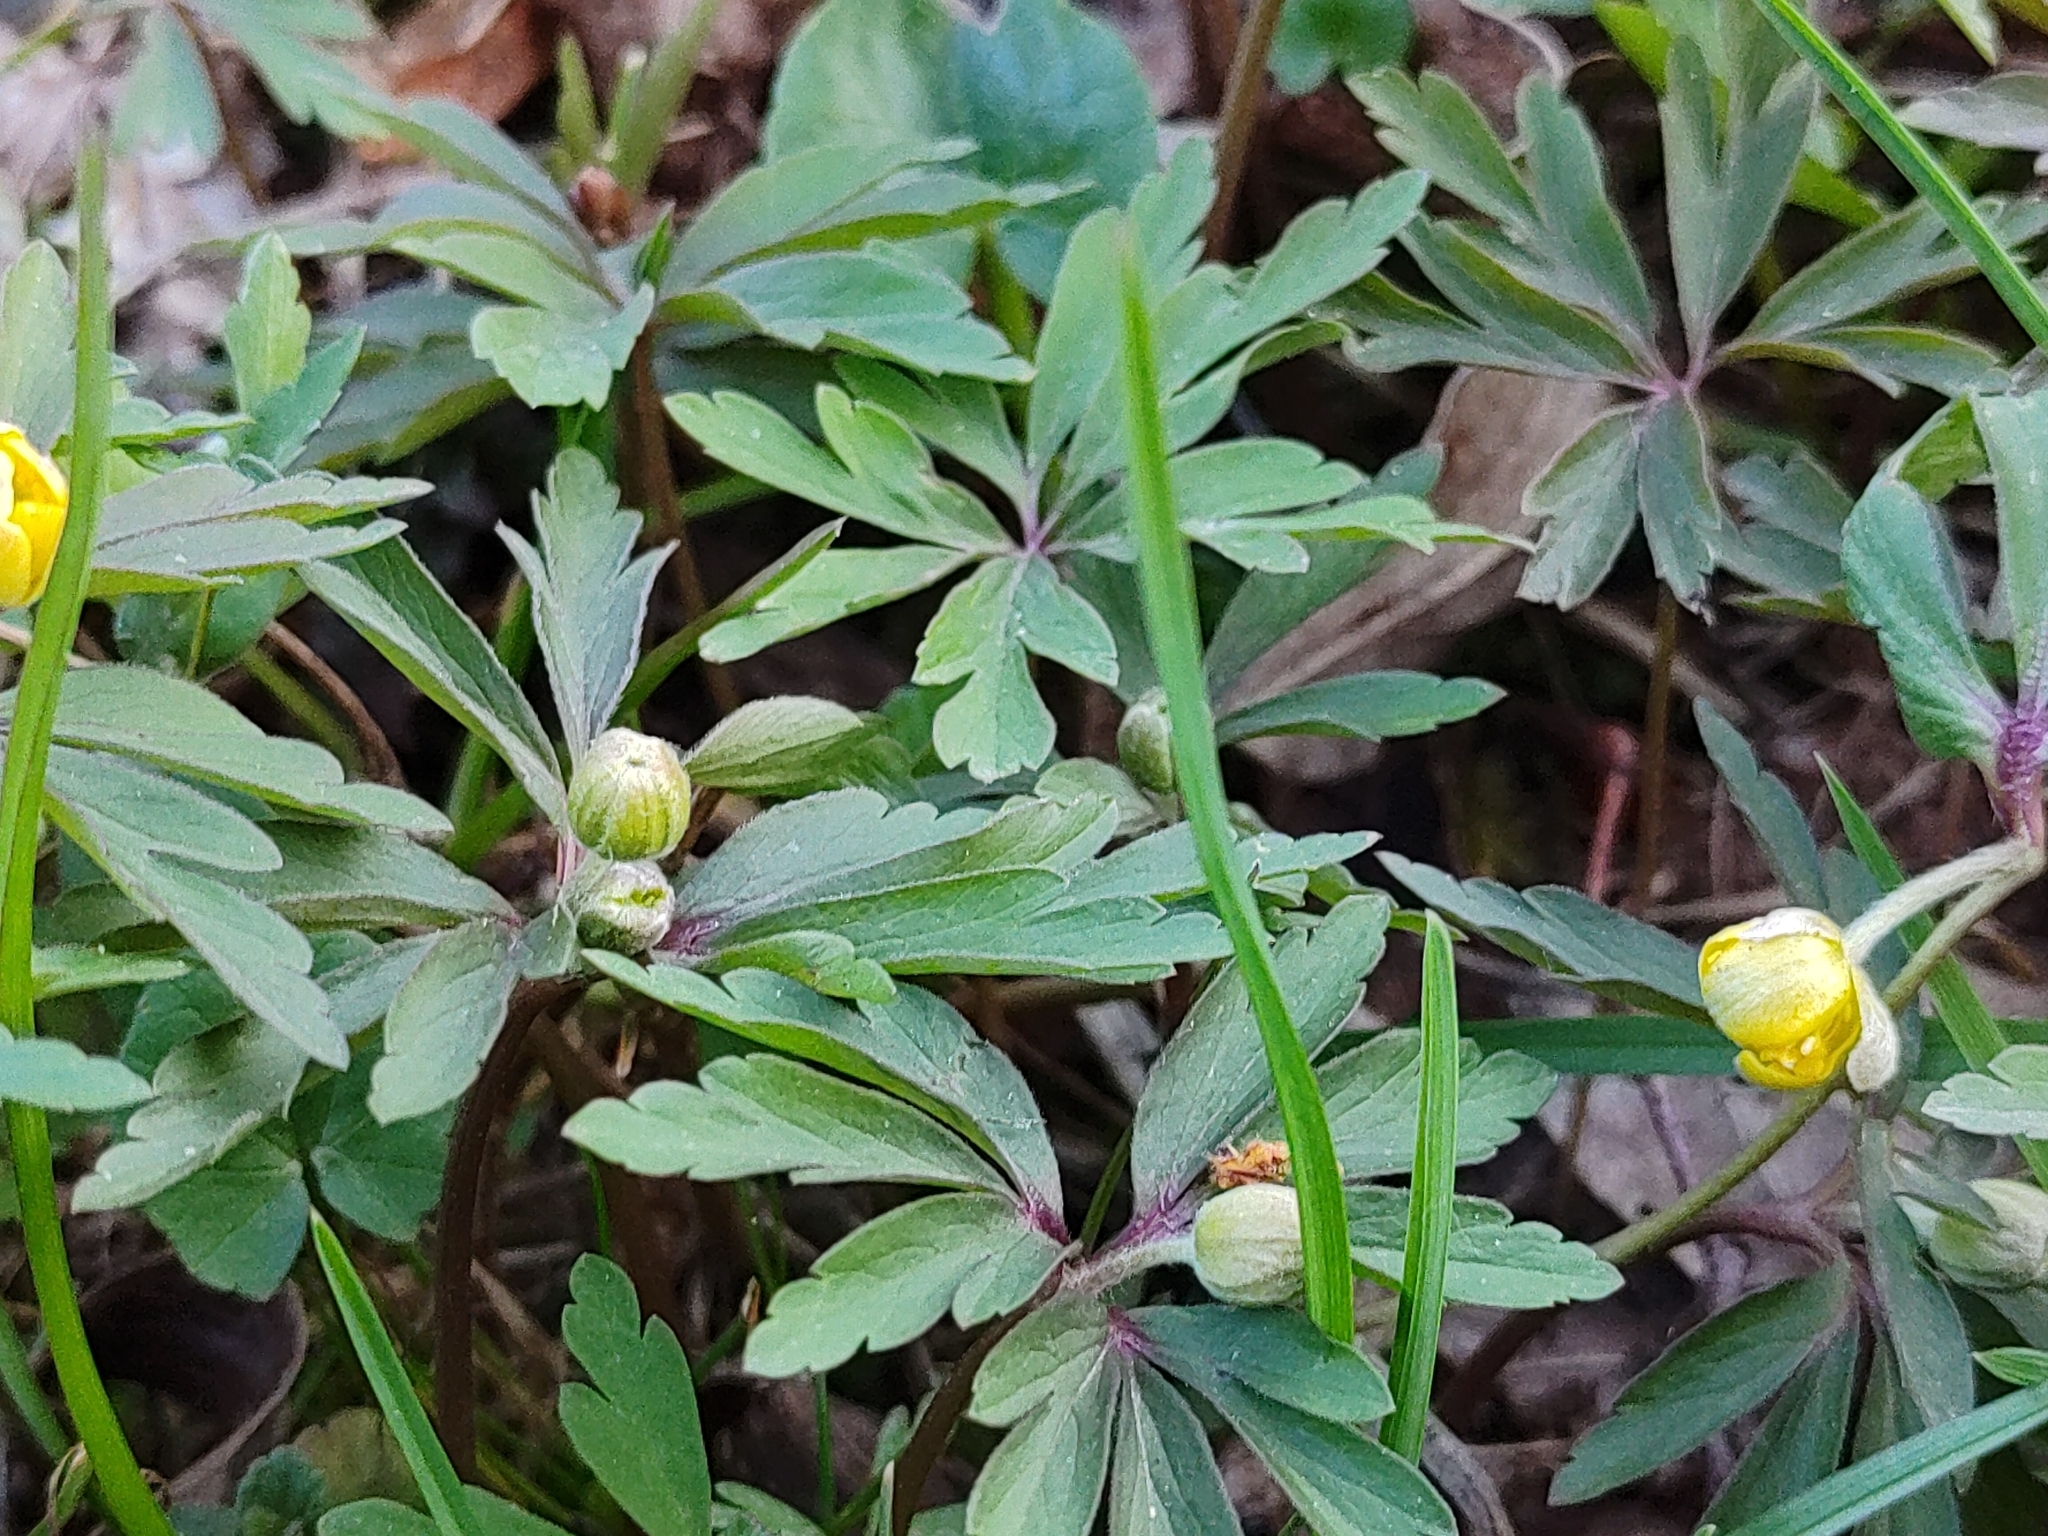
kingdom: Plantae
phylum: Tracheophyta
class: Magnoliopsida
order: Ranunculales
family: Ranunculaceae
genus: Anemone
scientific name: Anemone ranunculoides
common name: Yellow anemone
